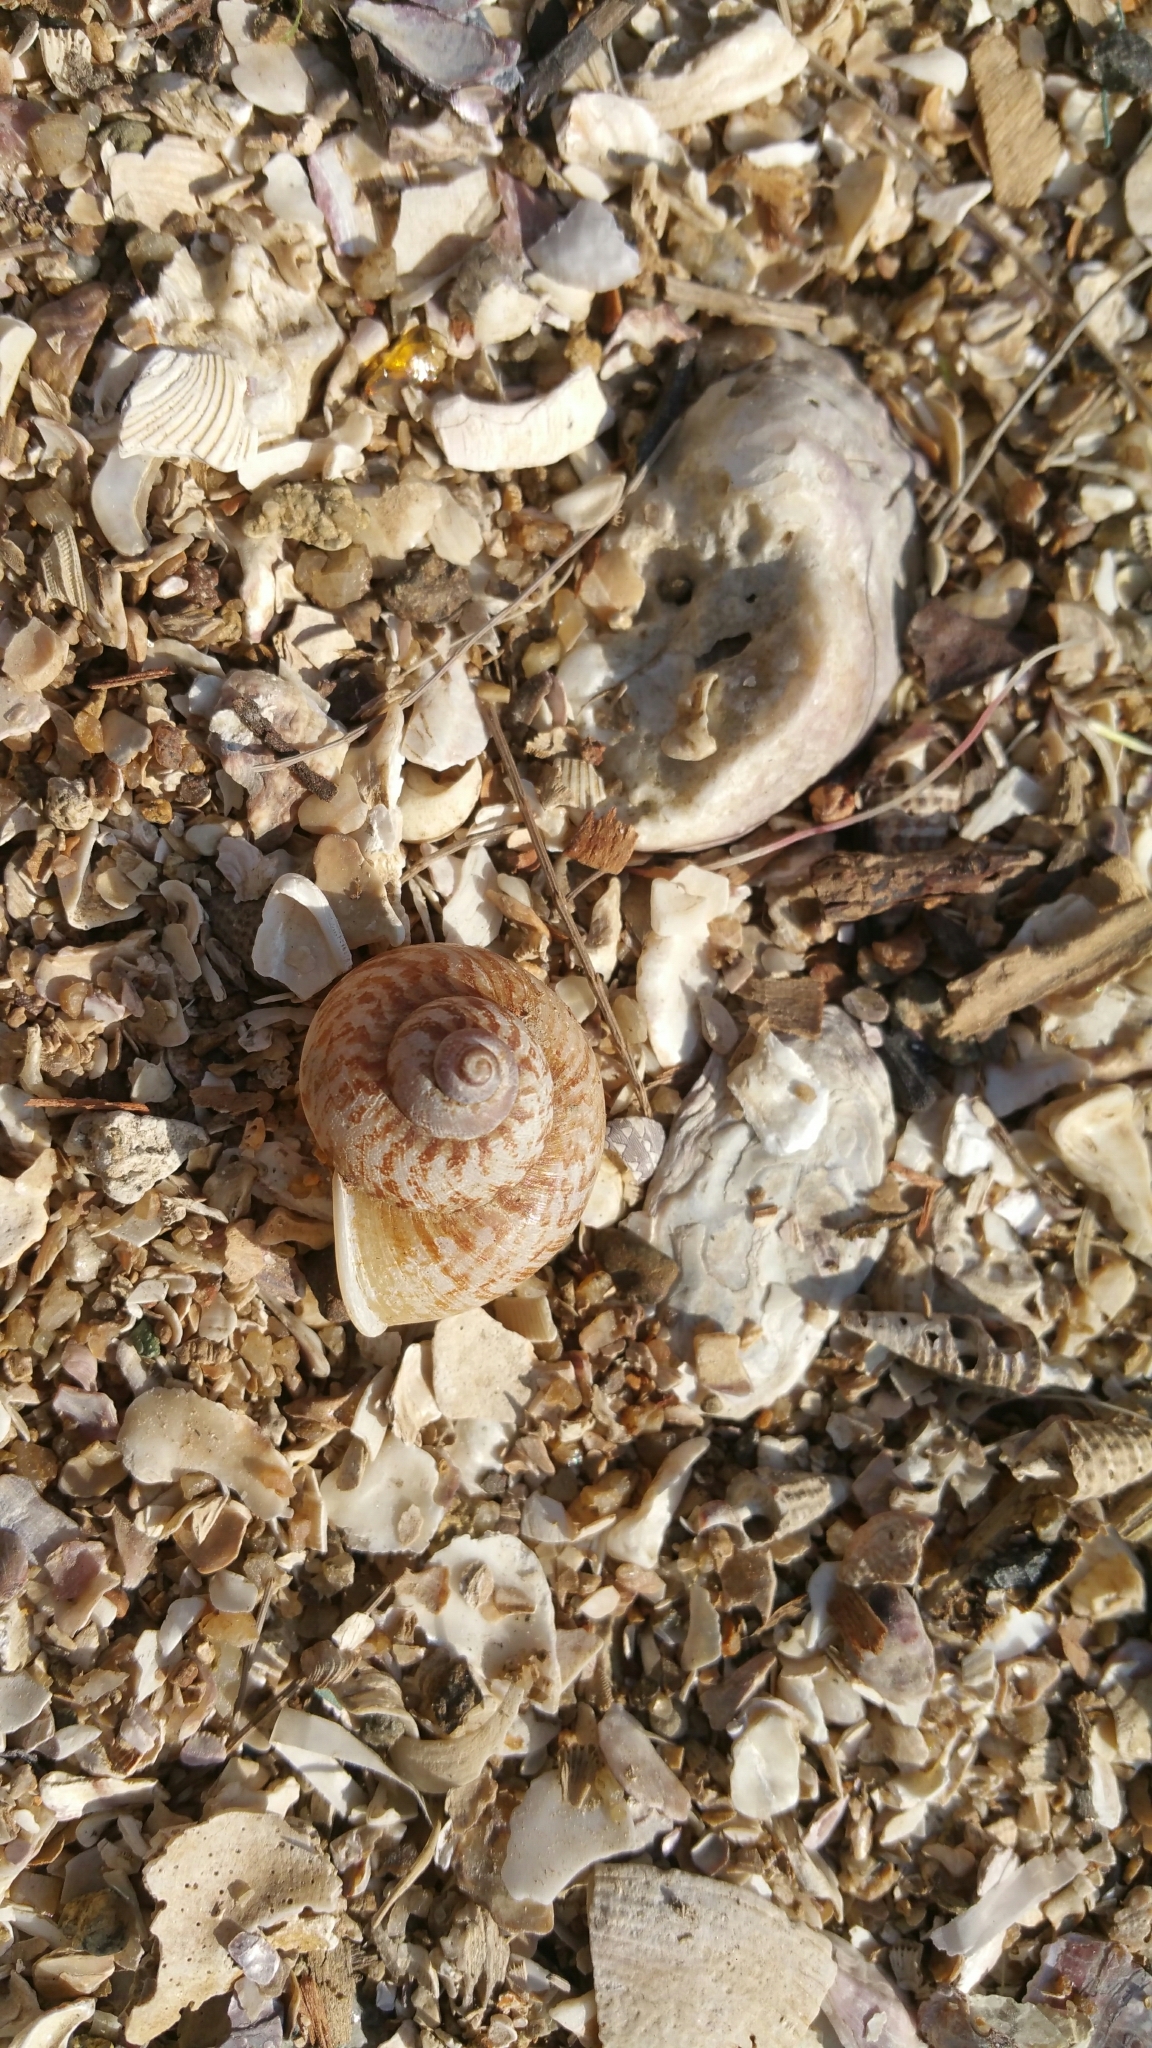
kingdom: Animalia
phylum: Mollusca
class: Gastropoda
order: Architaenioglossa
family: Cyclophoridae
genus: Cyclophorus
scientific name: Cyclophorus punctatus
